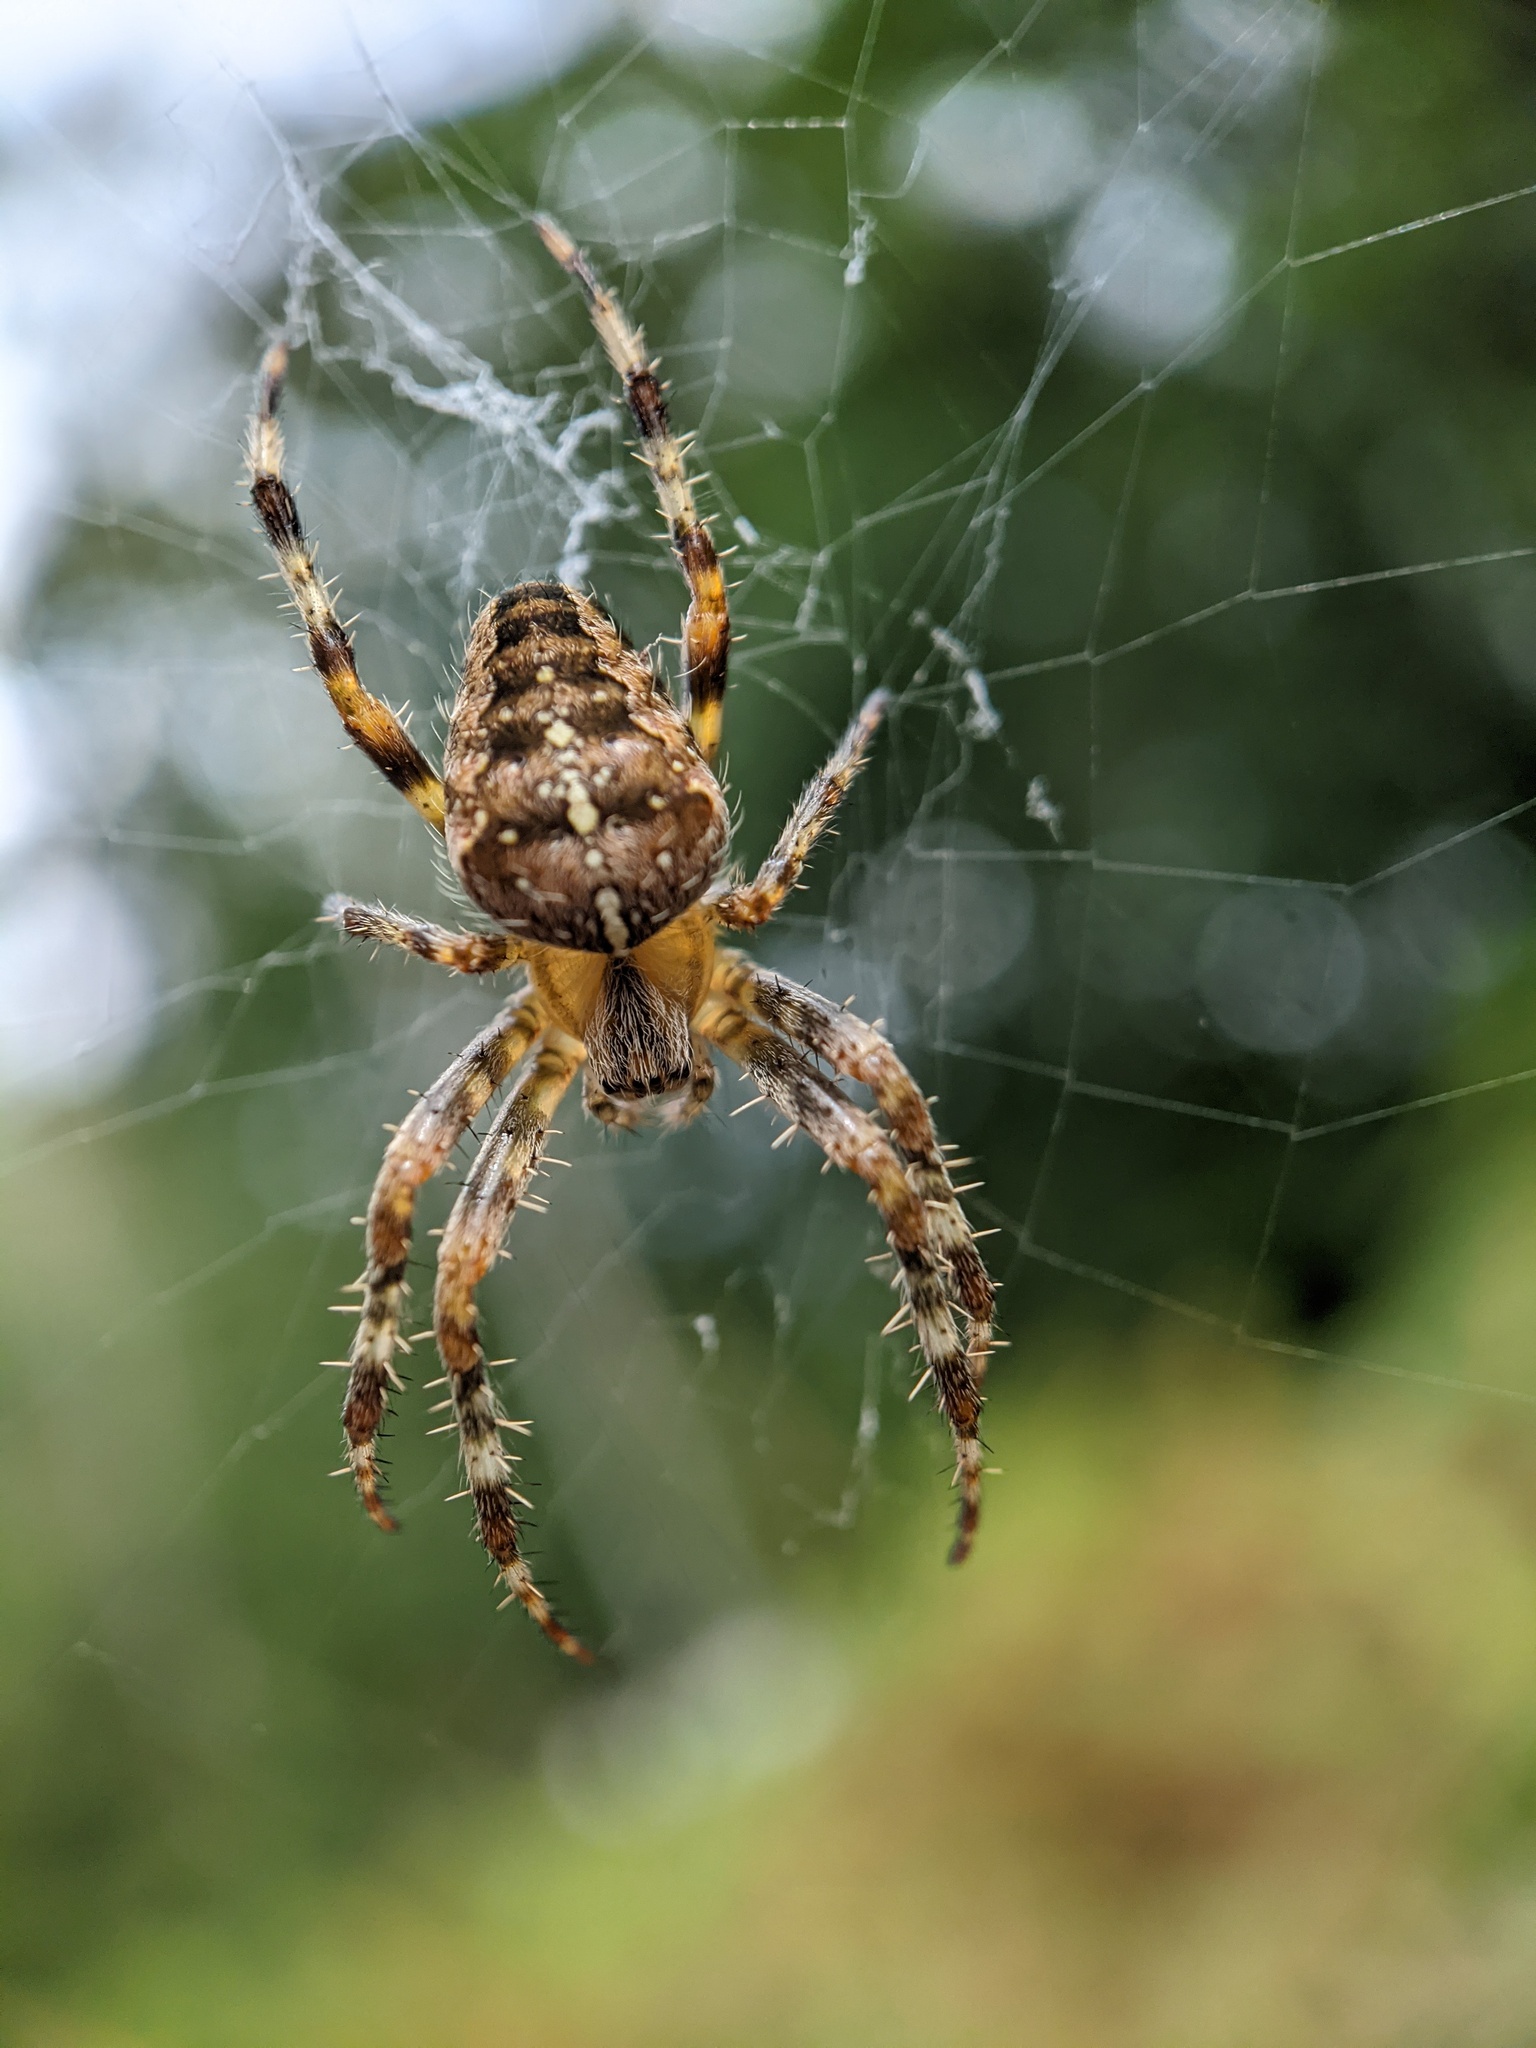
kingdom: Animalia
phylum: Arthropoda
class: Arachnida
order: Araneae
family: Araneidae
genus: Araneus
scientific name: Araneus diadematus
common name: Cross orbweaver
